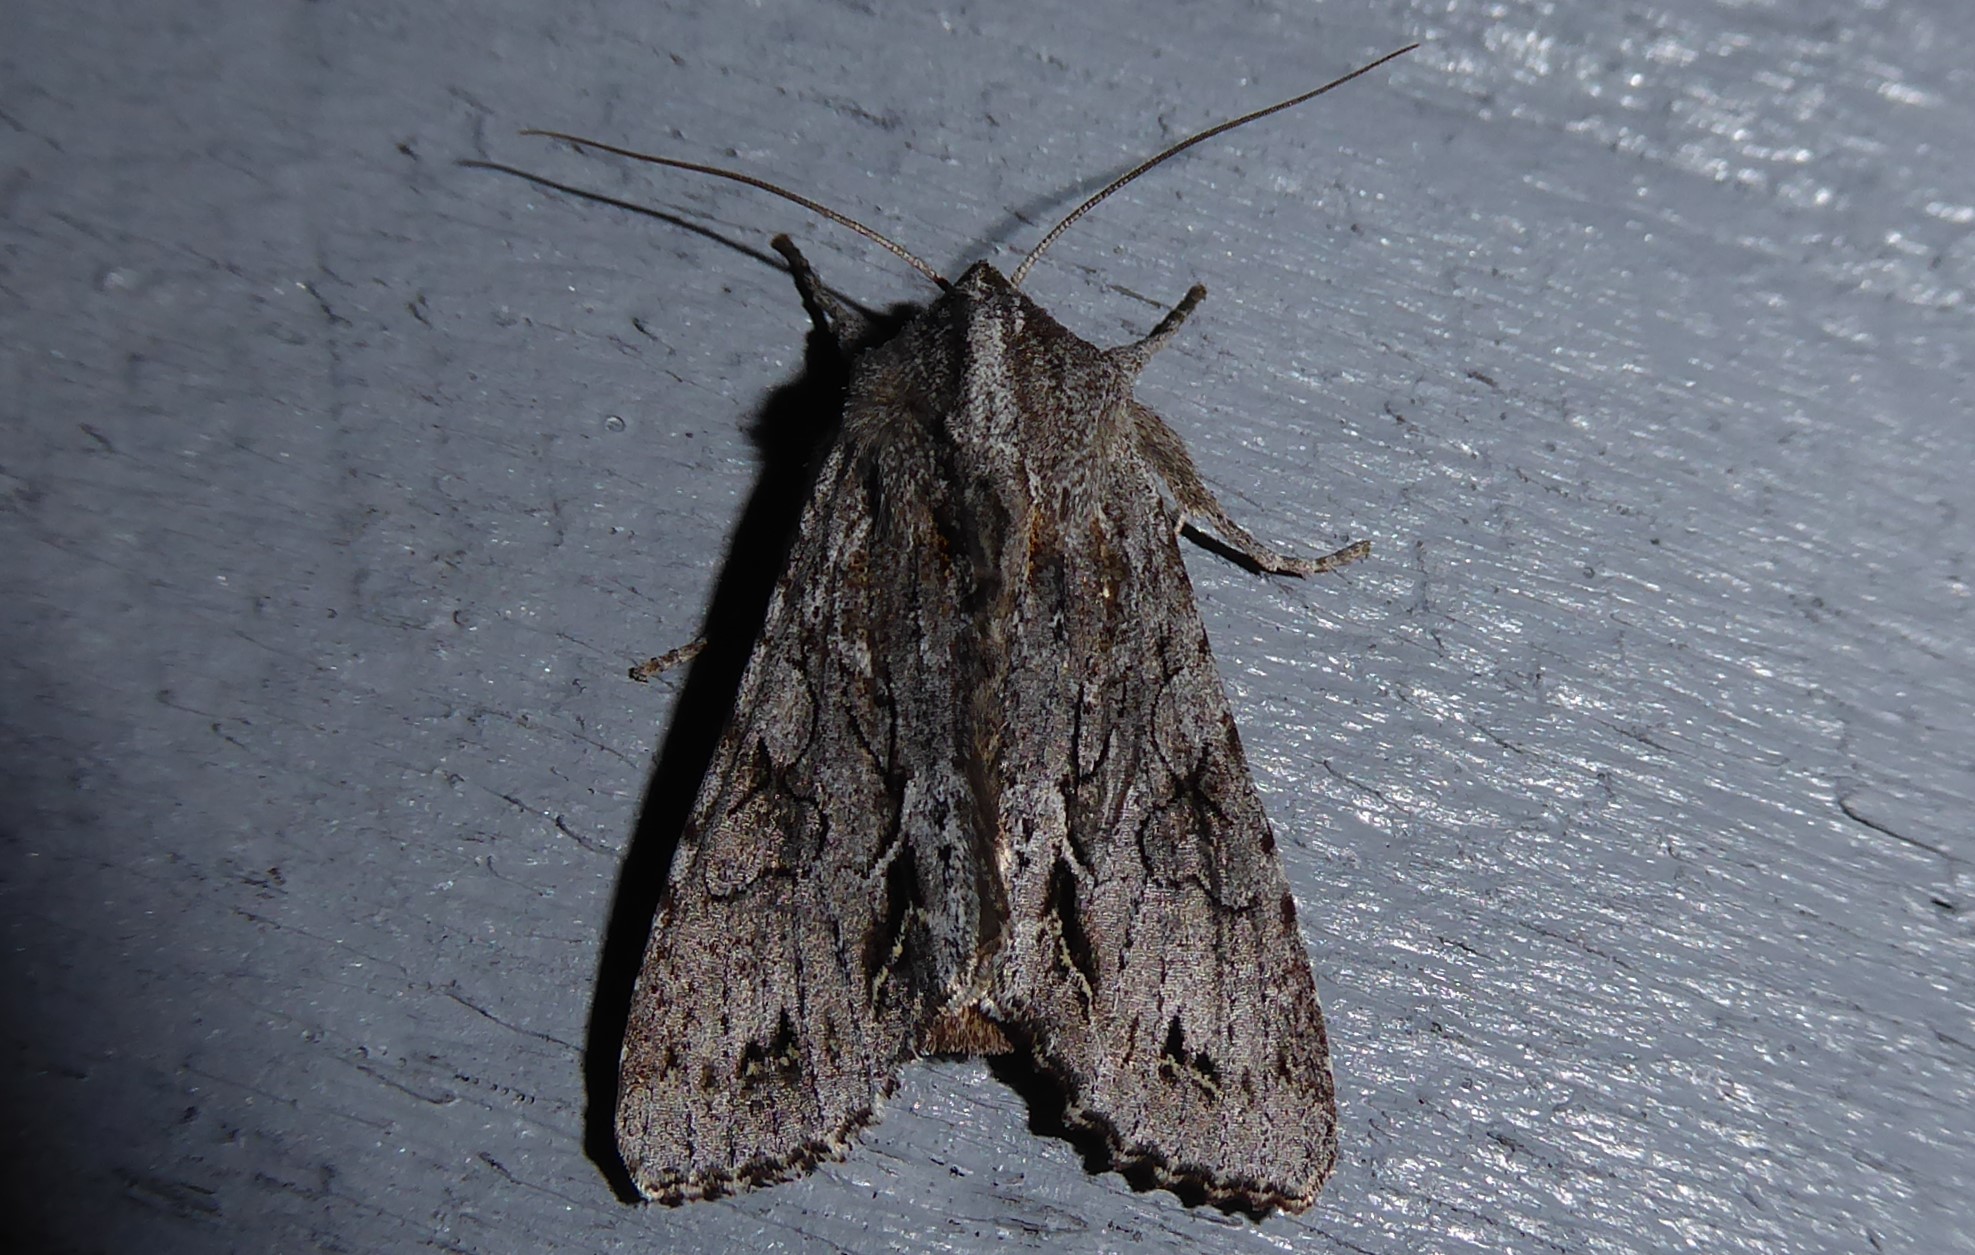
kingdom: Animalia
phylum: Arthropoda
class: Insecta
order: Lepidoptera
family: Noctuidae
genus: Ichneutica
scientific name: Ichneutica
